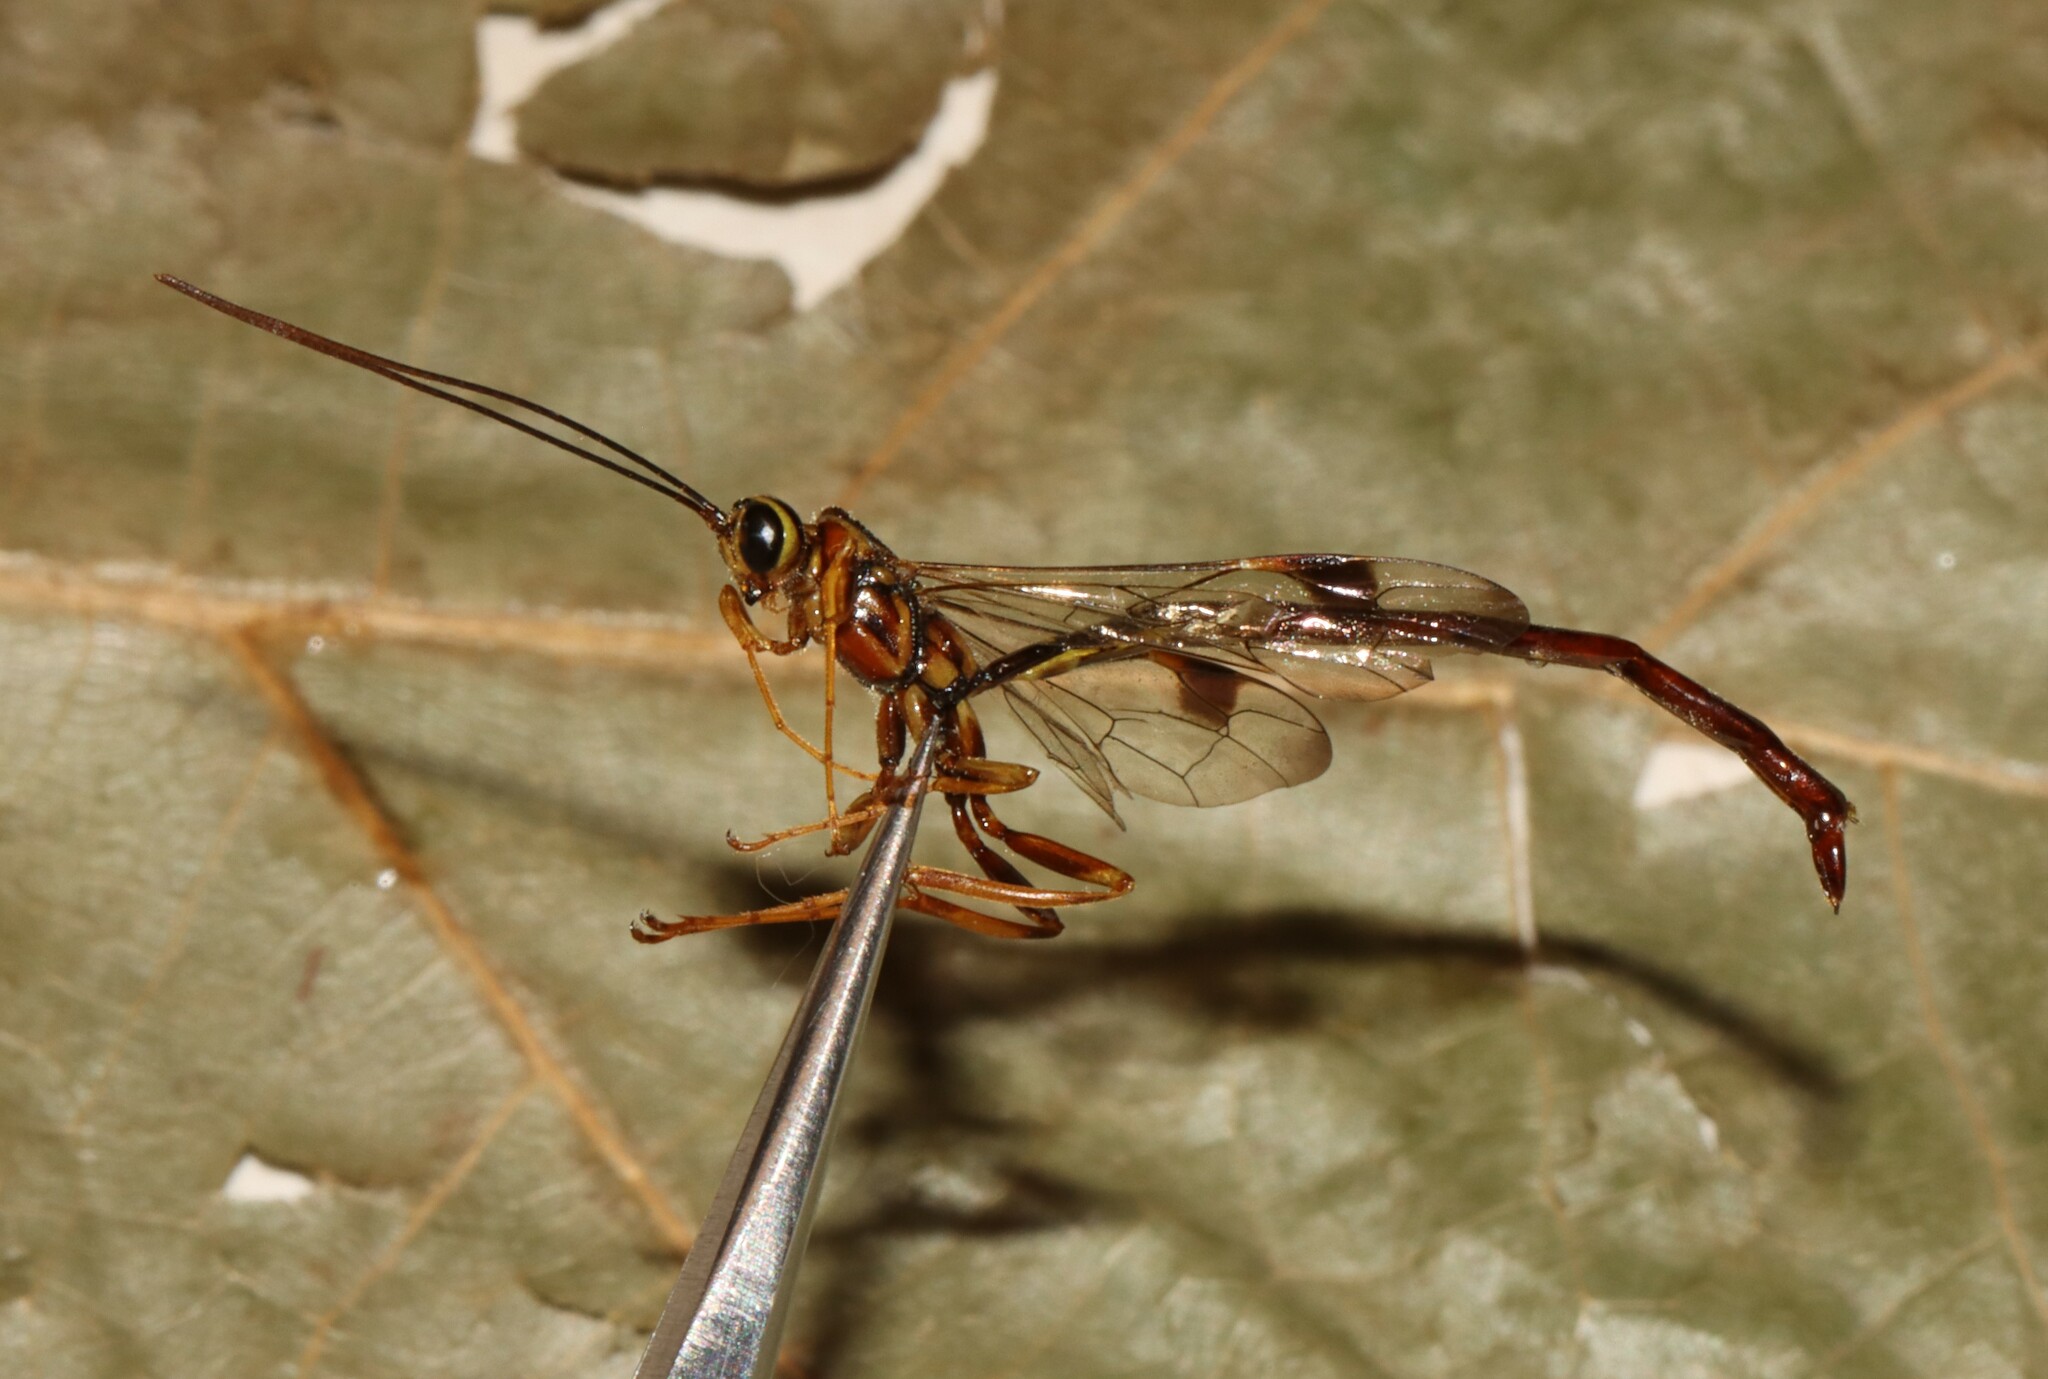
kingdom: Animalia
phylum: Arthropoda
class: Insecta
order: Hymenoptera
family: Ichneumonidae
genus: Megarhyssa
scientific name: Megarhyssa macrura
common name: Long-tailed giant ichneumonid wasp
